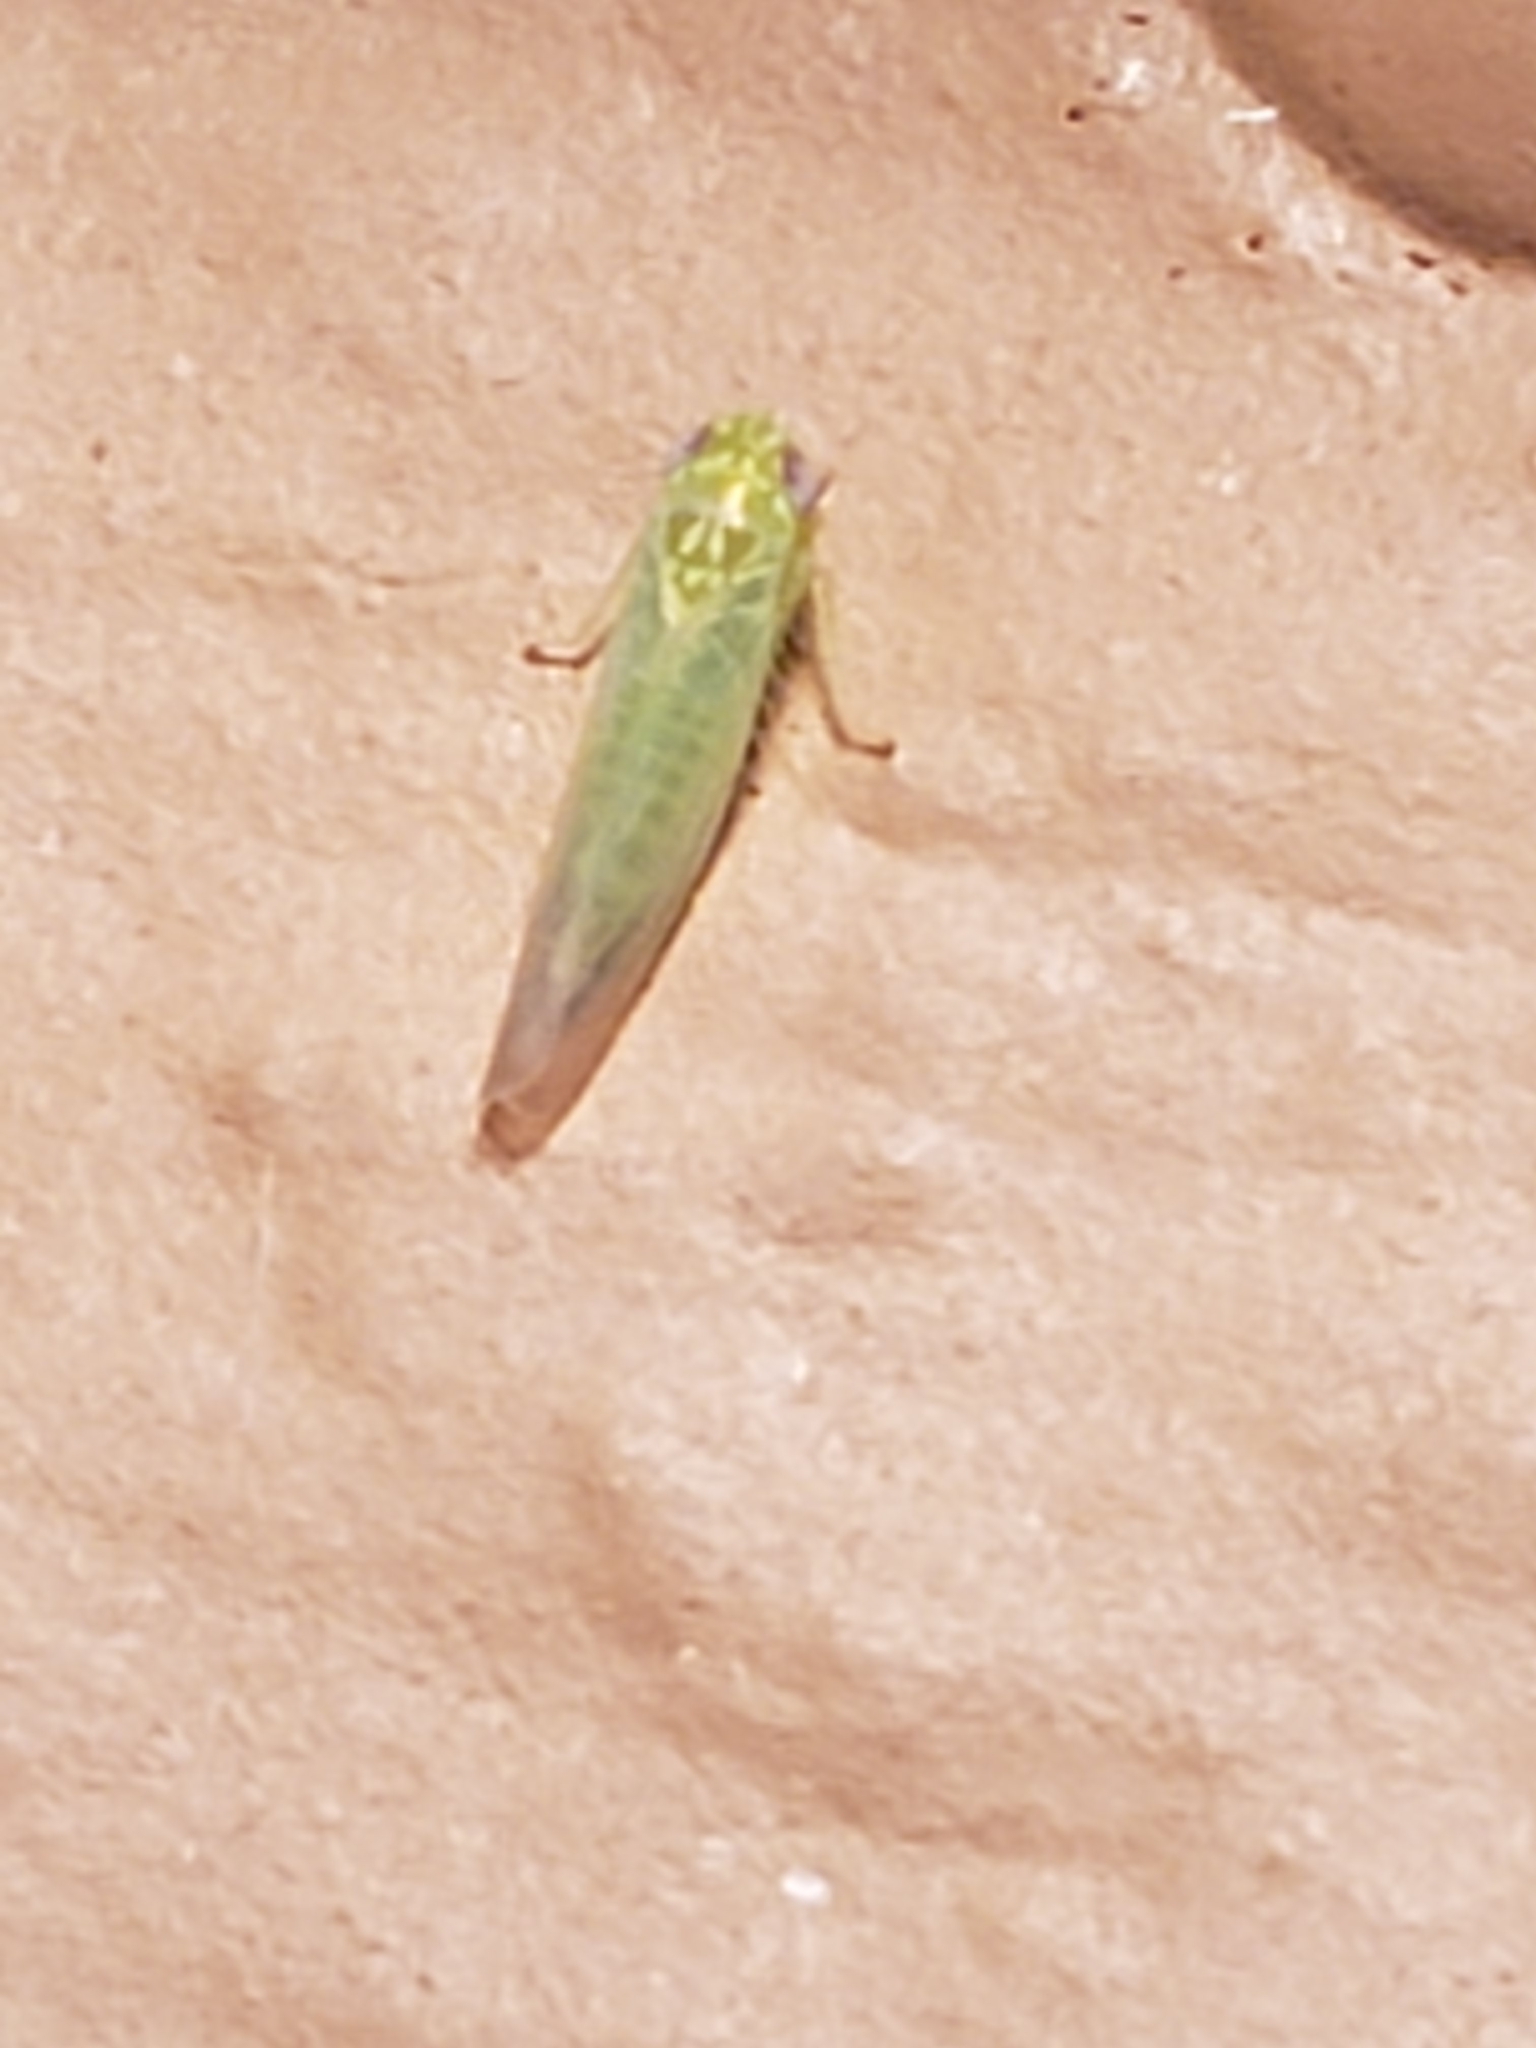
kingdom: Animalia
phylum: Arthropoda
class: Insecta
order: Hemiptera
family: Cicadellidae
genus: Empoasca
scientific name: Empoasca fabae
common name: Potato leafhopper
